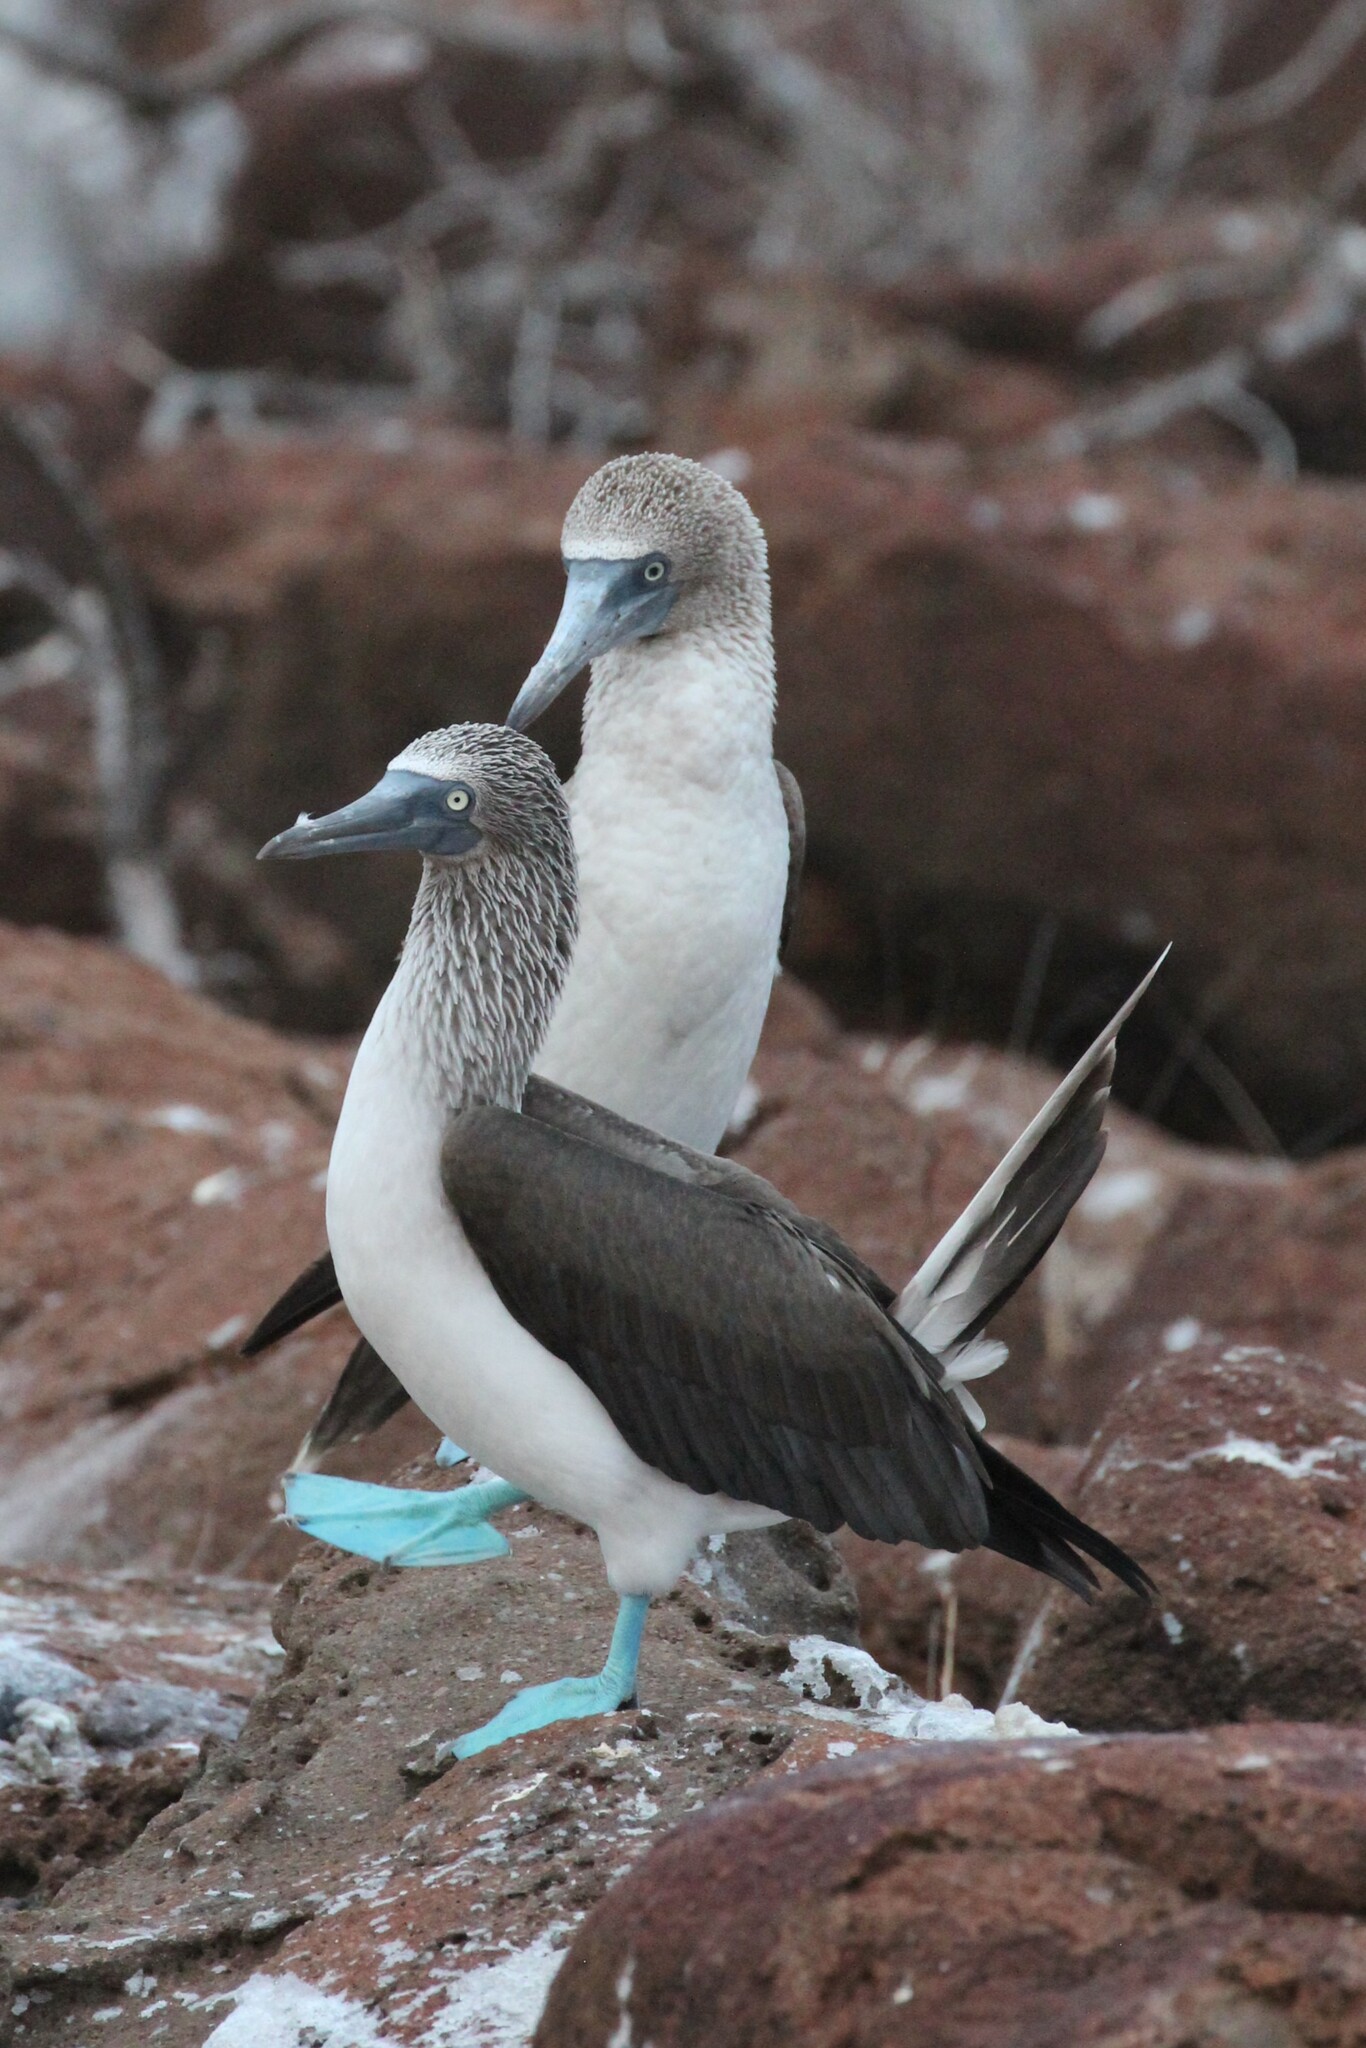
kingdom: Animalia
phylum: Chordata
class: Aves
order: Suliformes
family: Sulidae
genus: Sula
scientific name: Sula nebouxii
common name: Blue-footed booby
